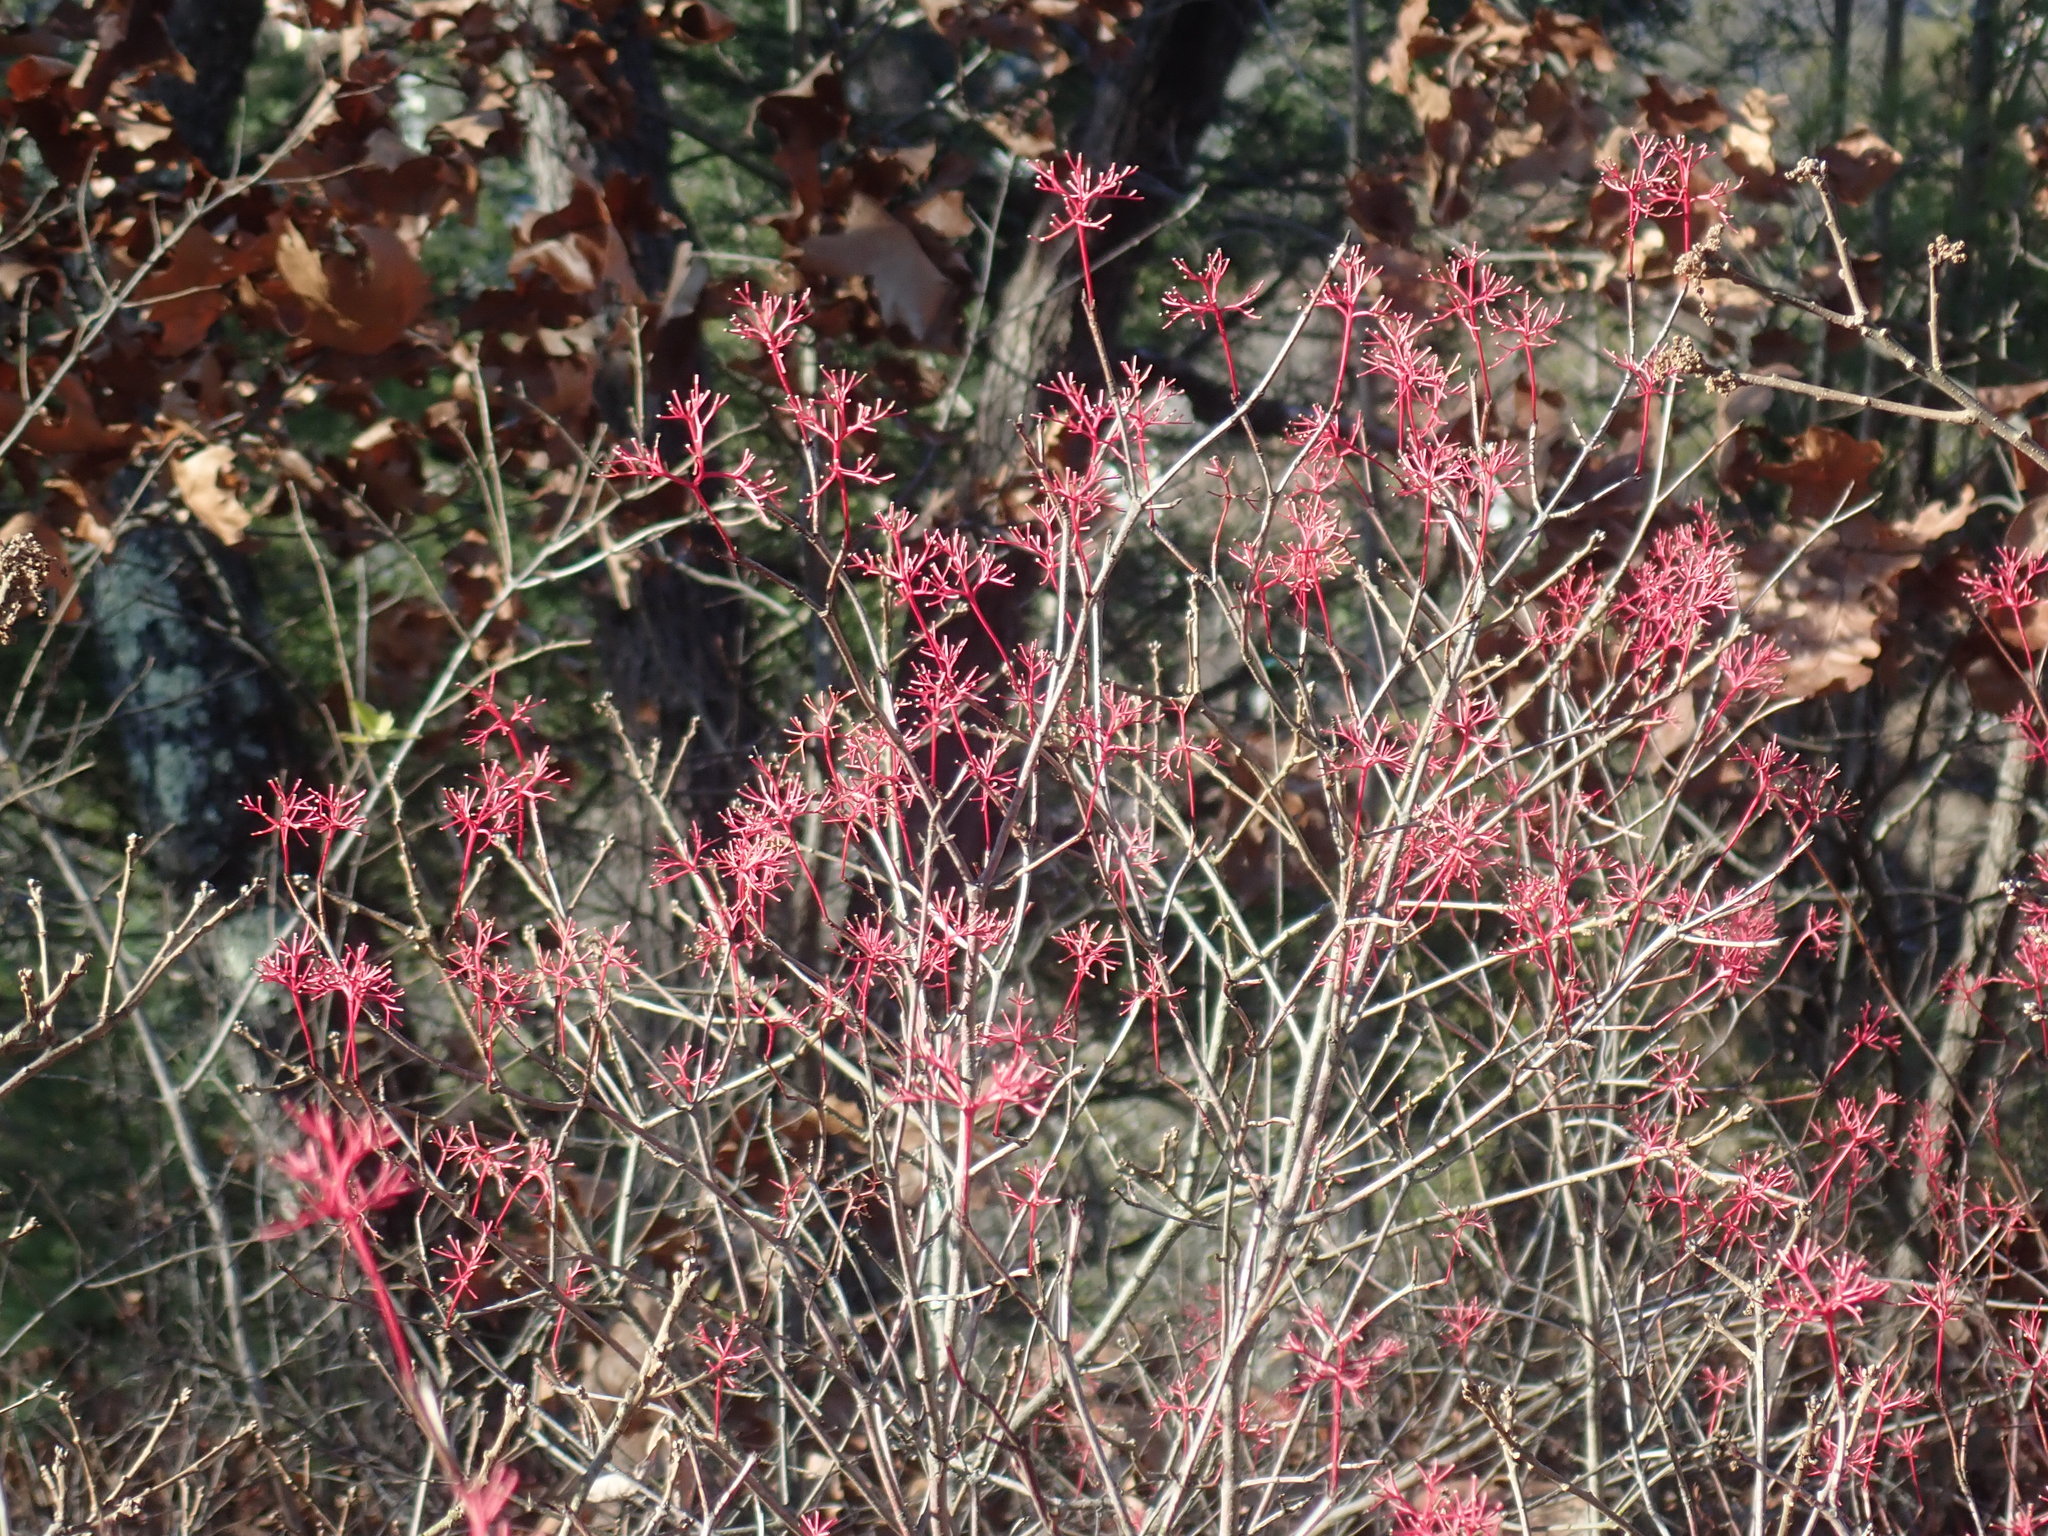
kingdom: Plantae
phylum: Tracheophyta
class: Magnoliopsida
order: Cornales
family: Cornaceae
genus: Cornus
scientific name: Cornus racemosa
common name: Panicled dogwood
